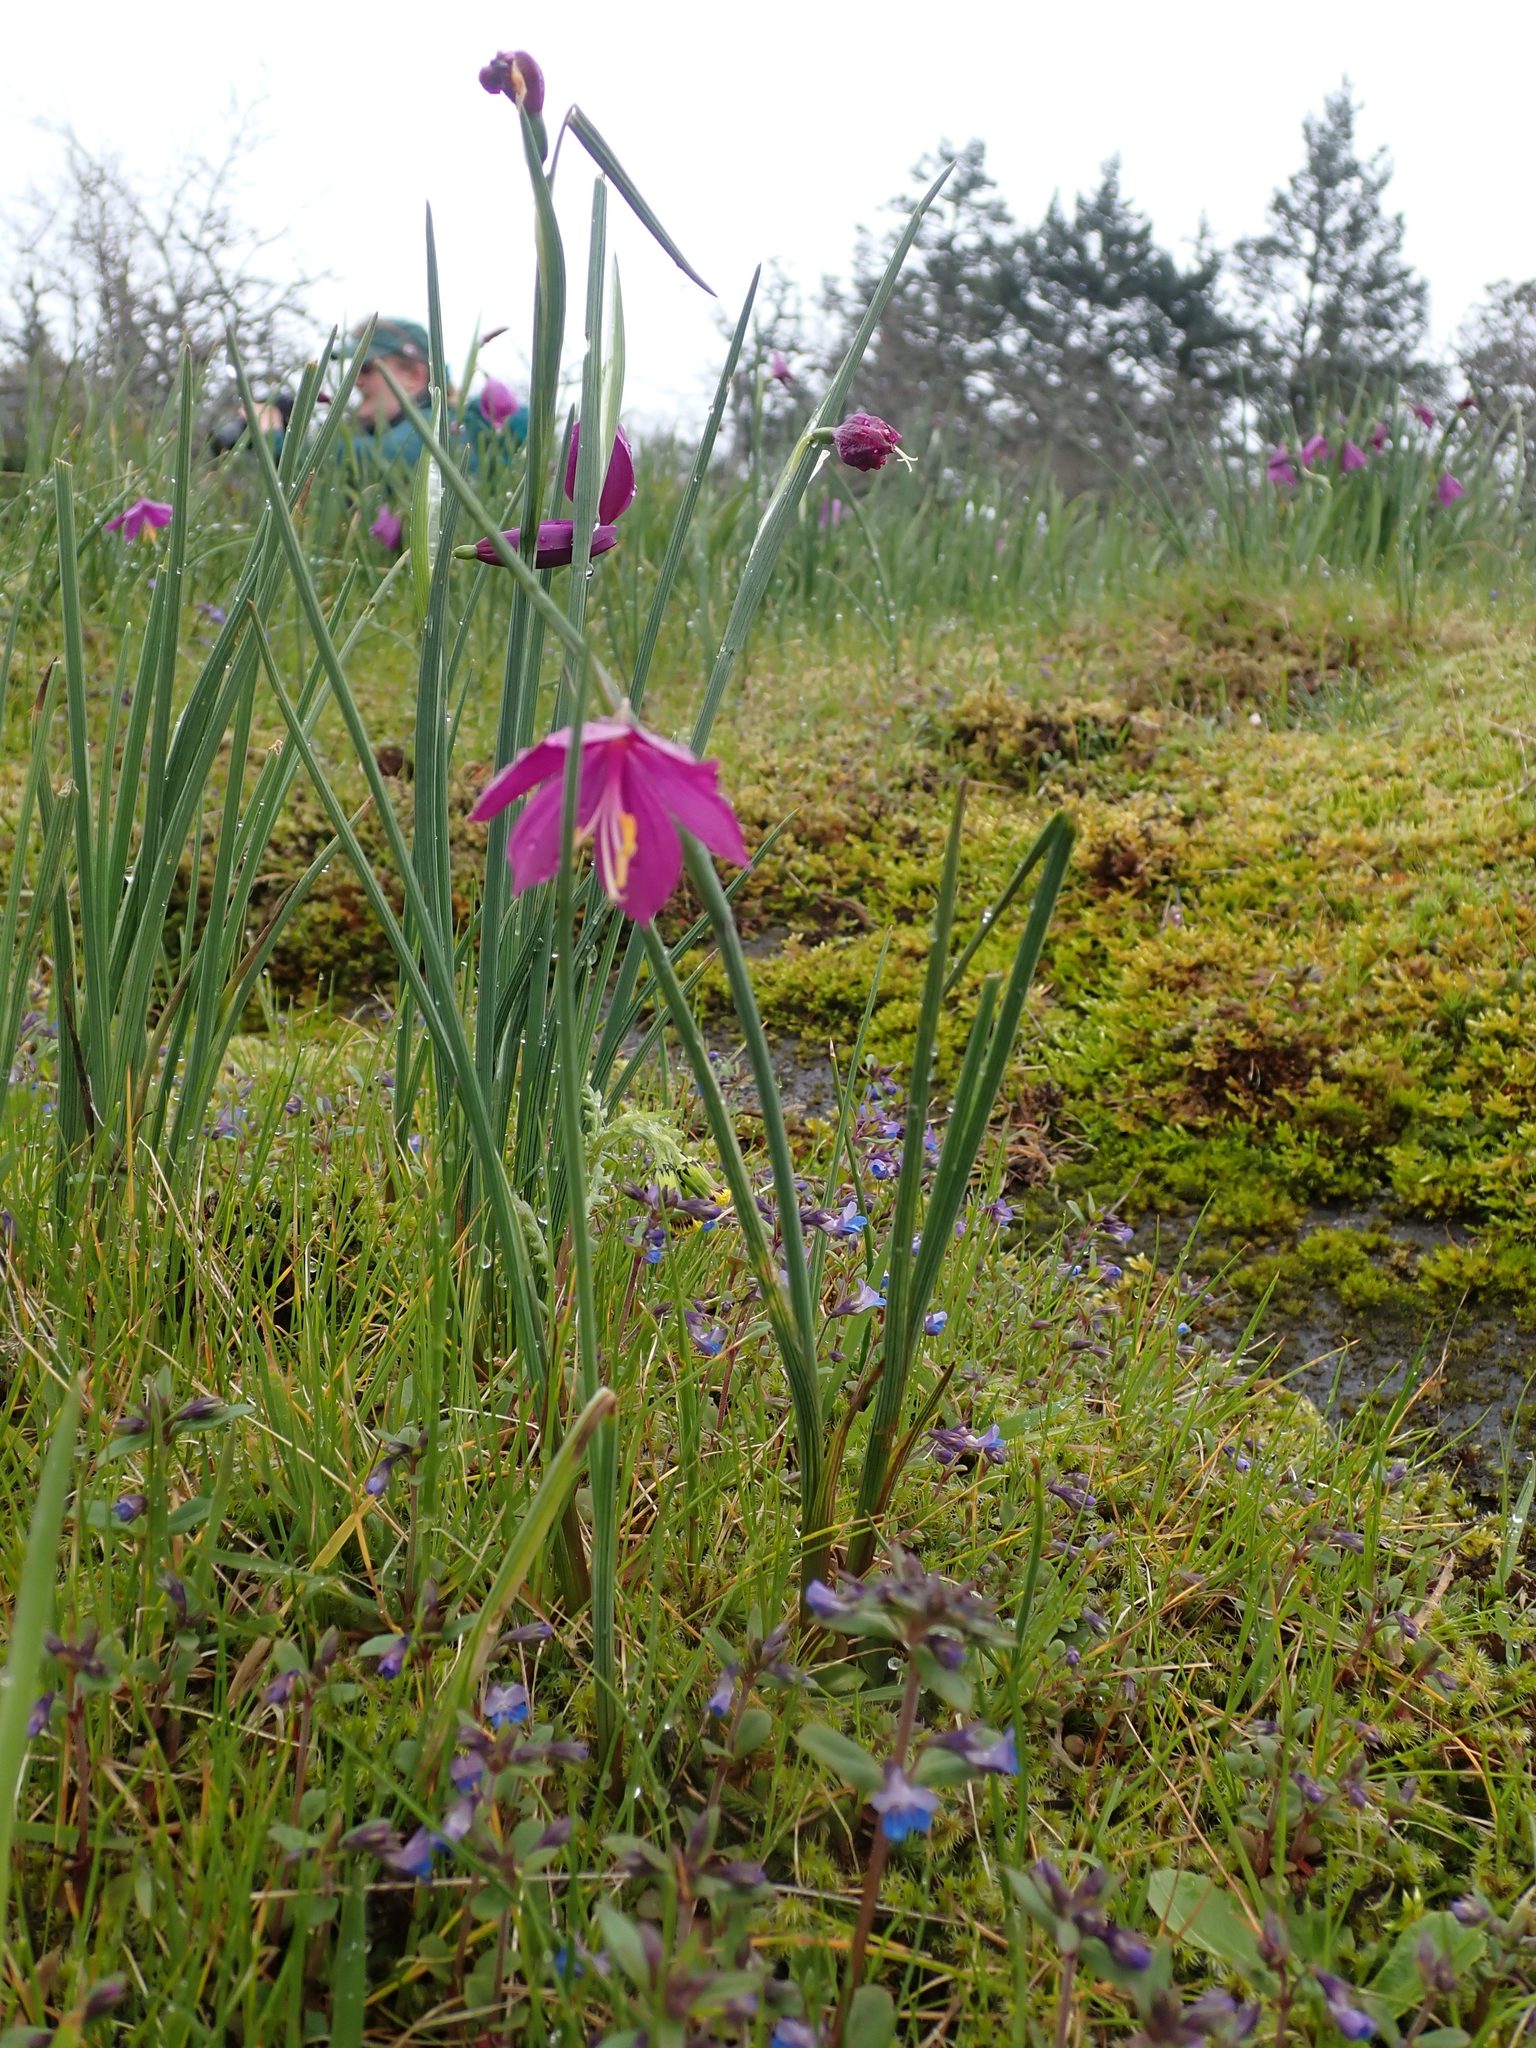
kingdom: Plantae
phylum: Tracheophyta
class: Liliopsida
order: Asparagales
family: Iridaceae
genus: Olsynium
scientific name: Olsynium douglasii
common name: Douglas' grasswidow
